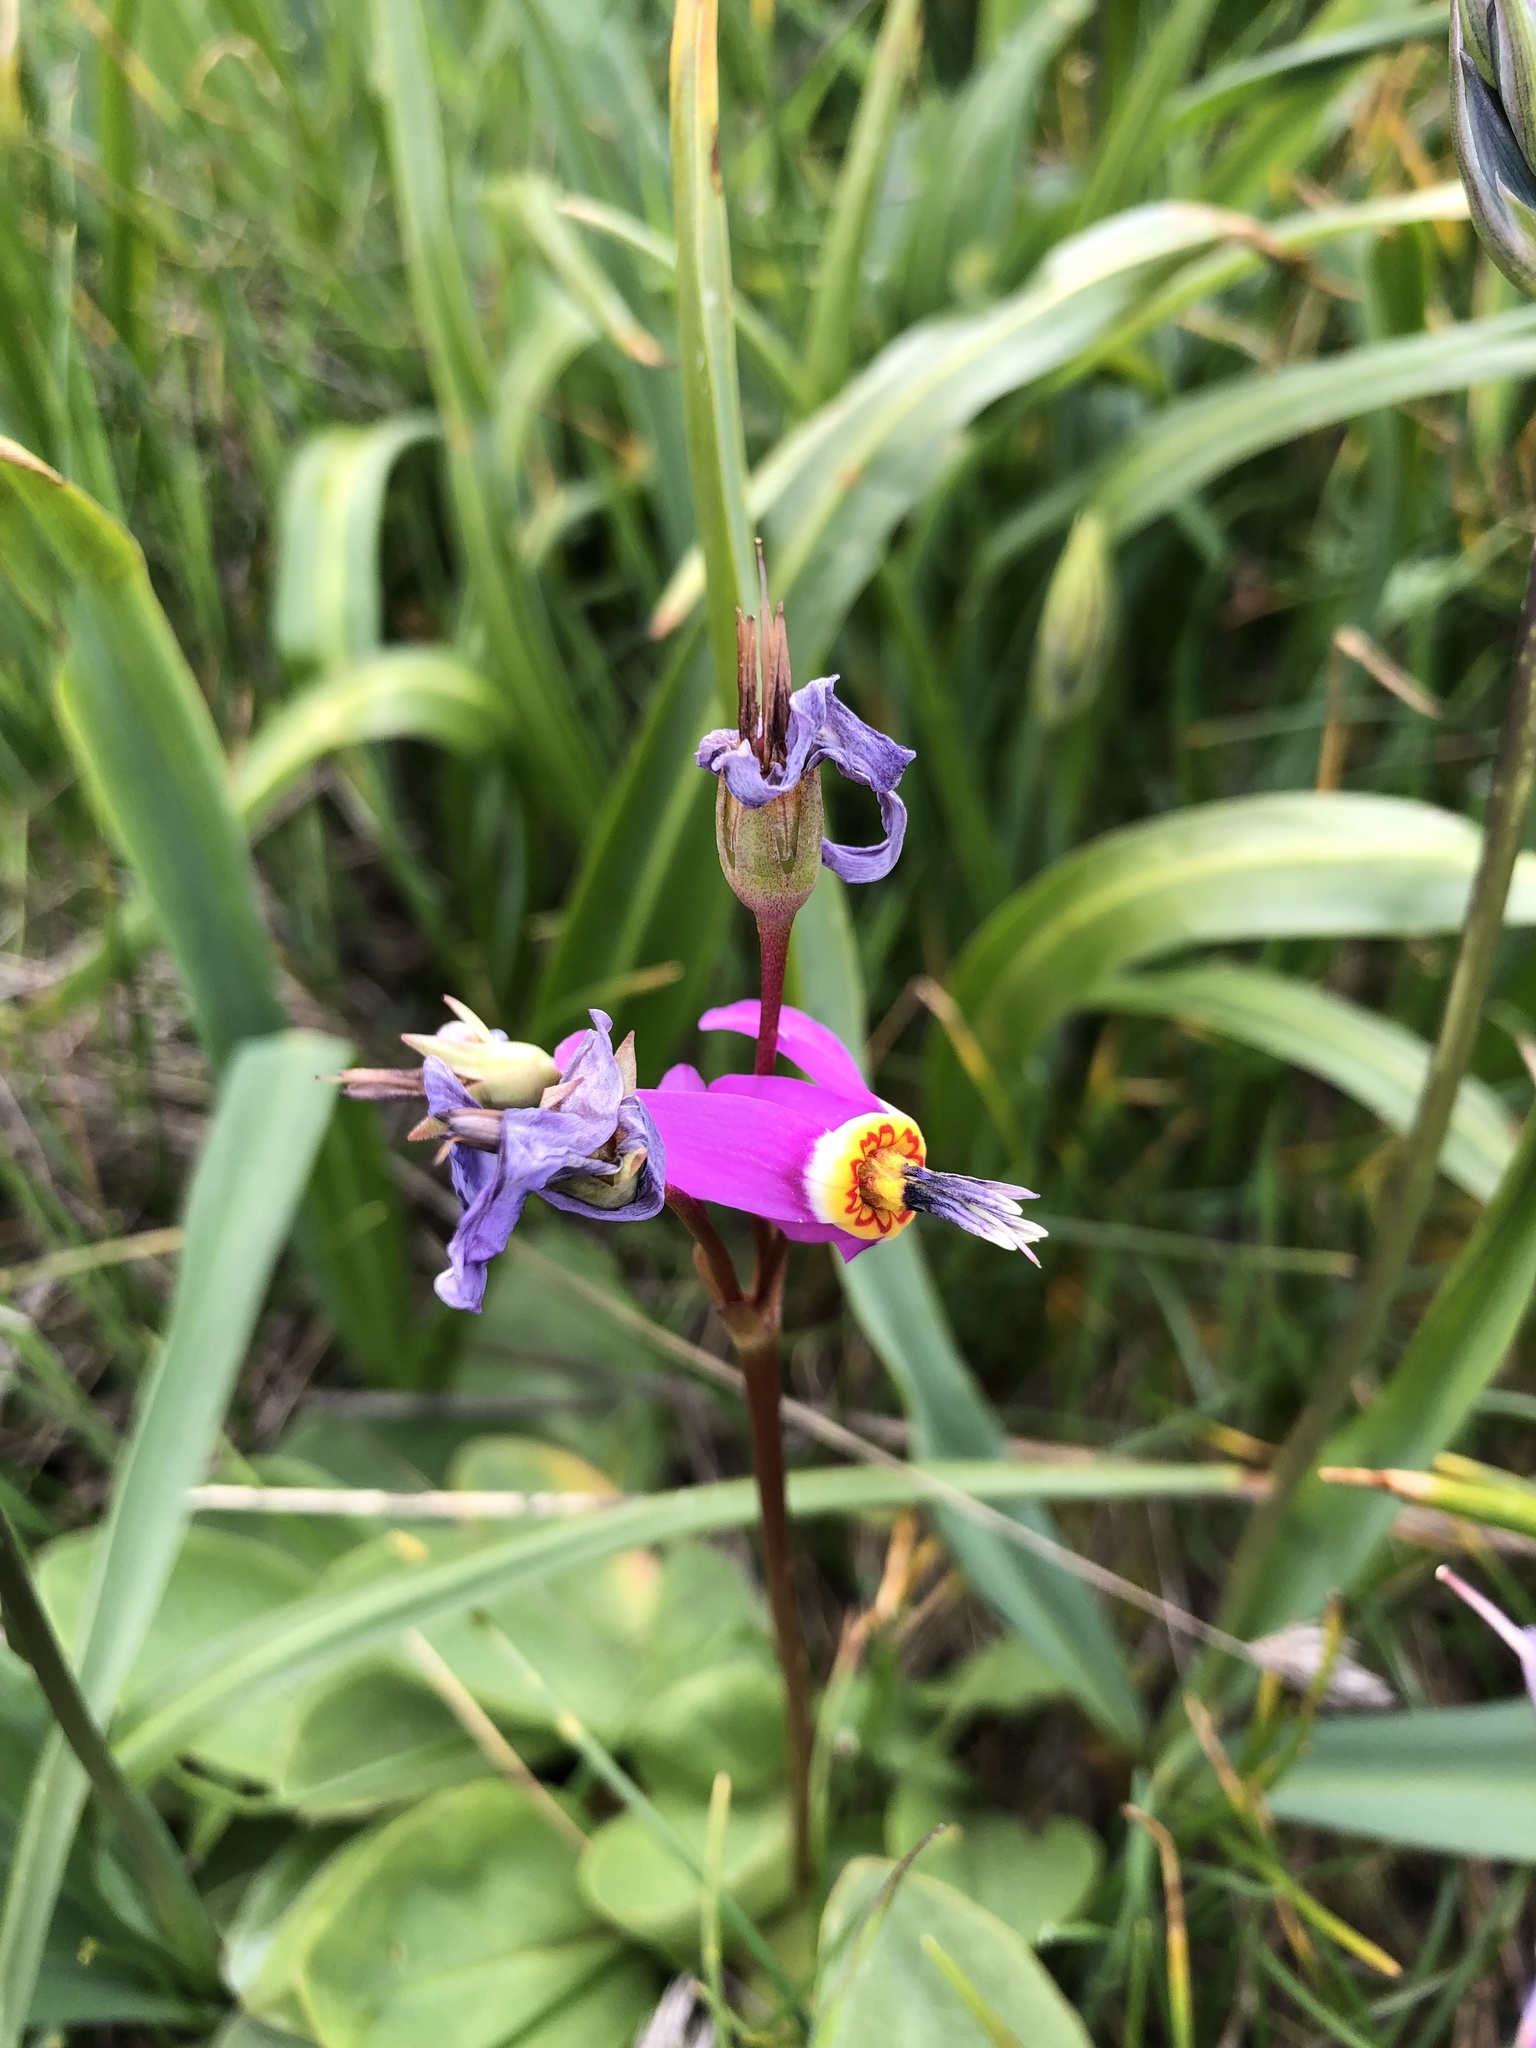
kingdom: Plantae
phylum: Tracheophyta
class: Magnoliopsida
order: Ericales
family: Primulaceae
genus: Dodecatheon
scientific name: Dodecatheon pulchellum
